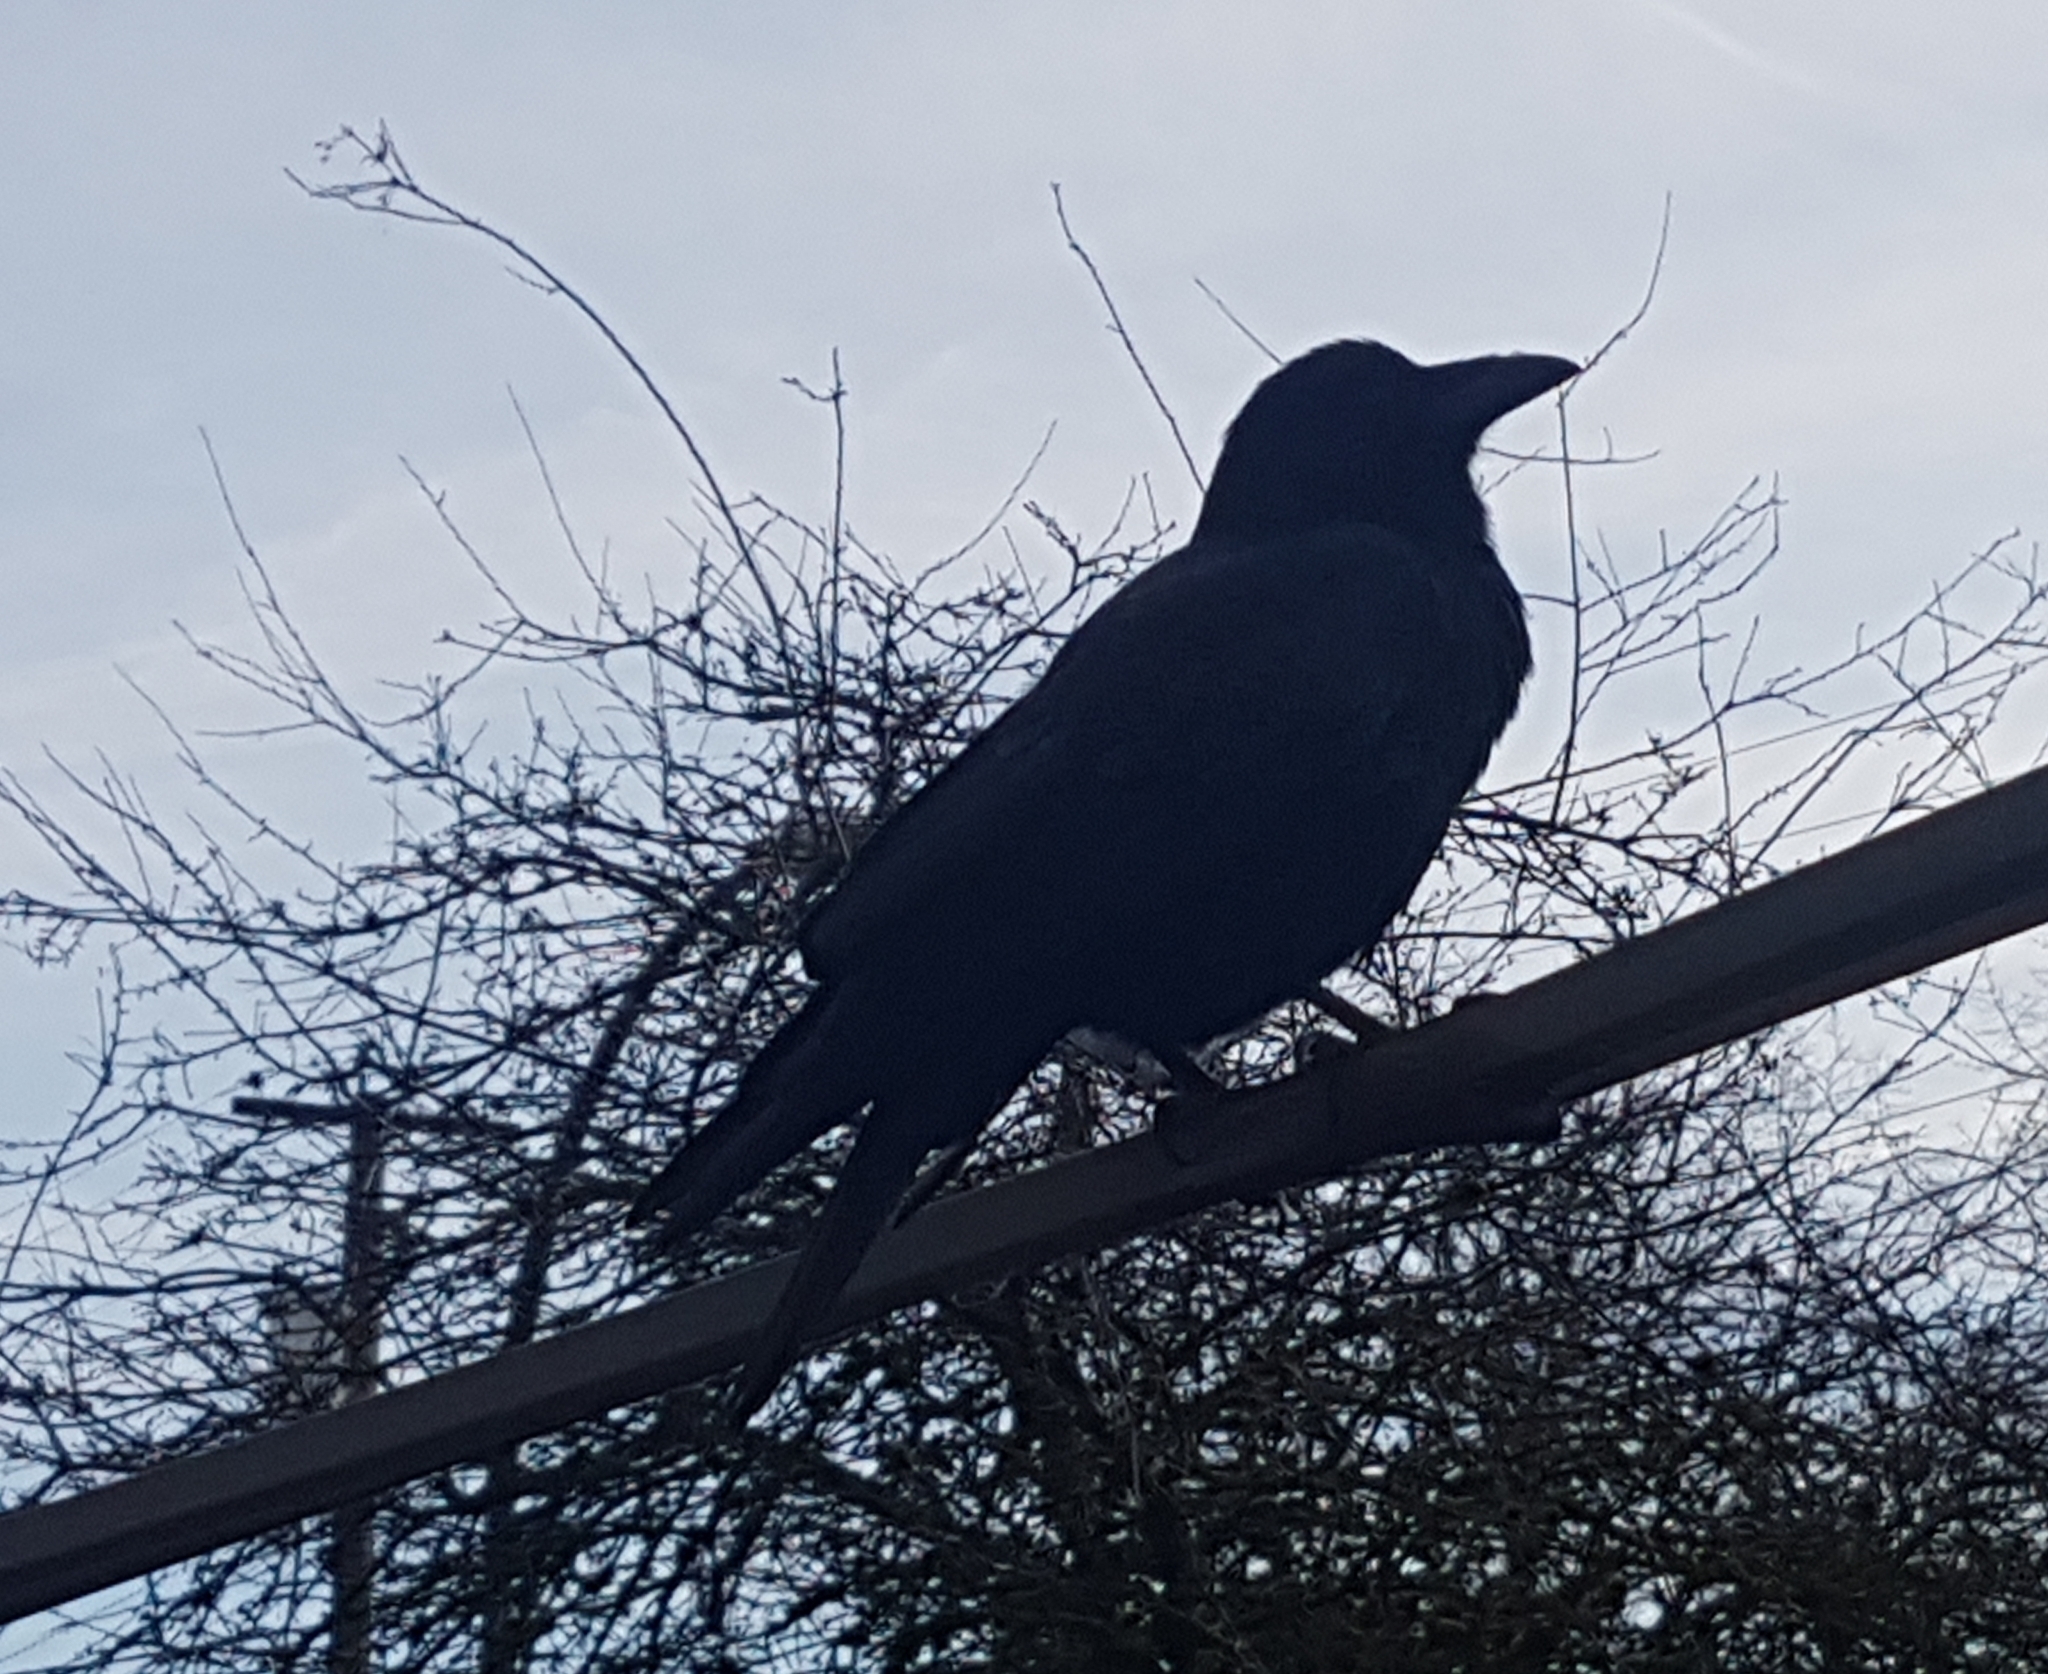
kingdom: Animalia
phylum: Chordata
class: Aves
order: Passeriformes
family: Corvidae
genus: Corvus
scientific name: Corvus brachyrhynchos
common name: American crow
